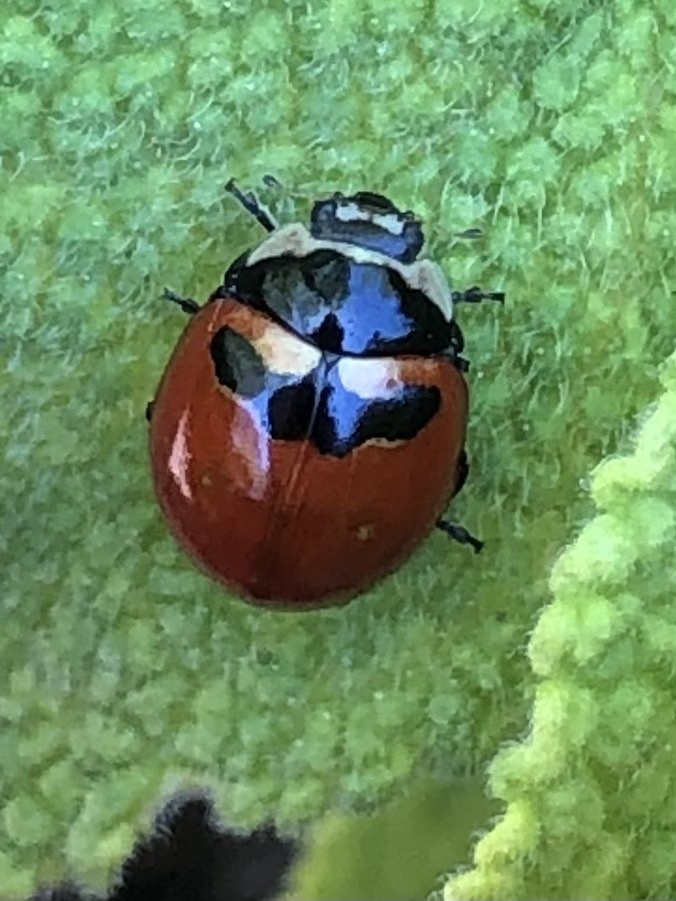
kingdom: Animalia
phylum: Arthropoda
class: Insecta
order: Coleoptera
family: Coccinellidae
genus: Coccinella
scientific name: Coccinella trifasciata
